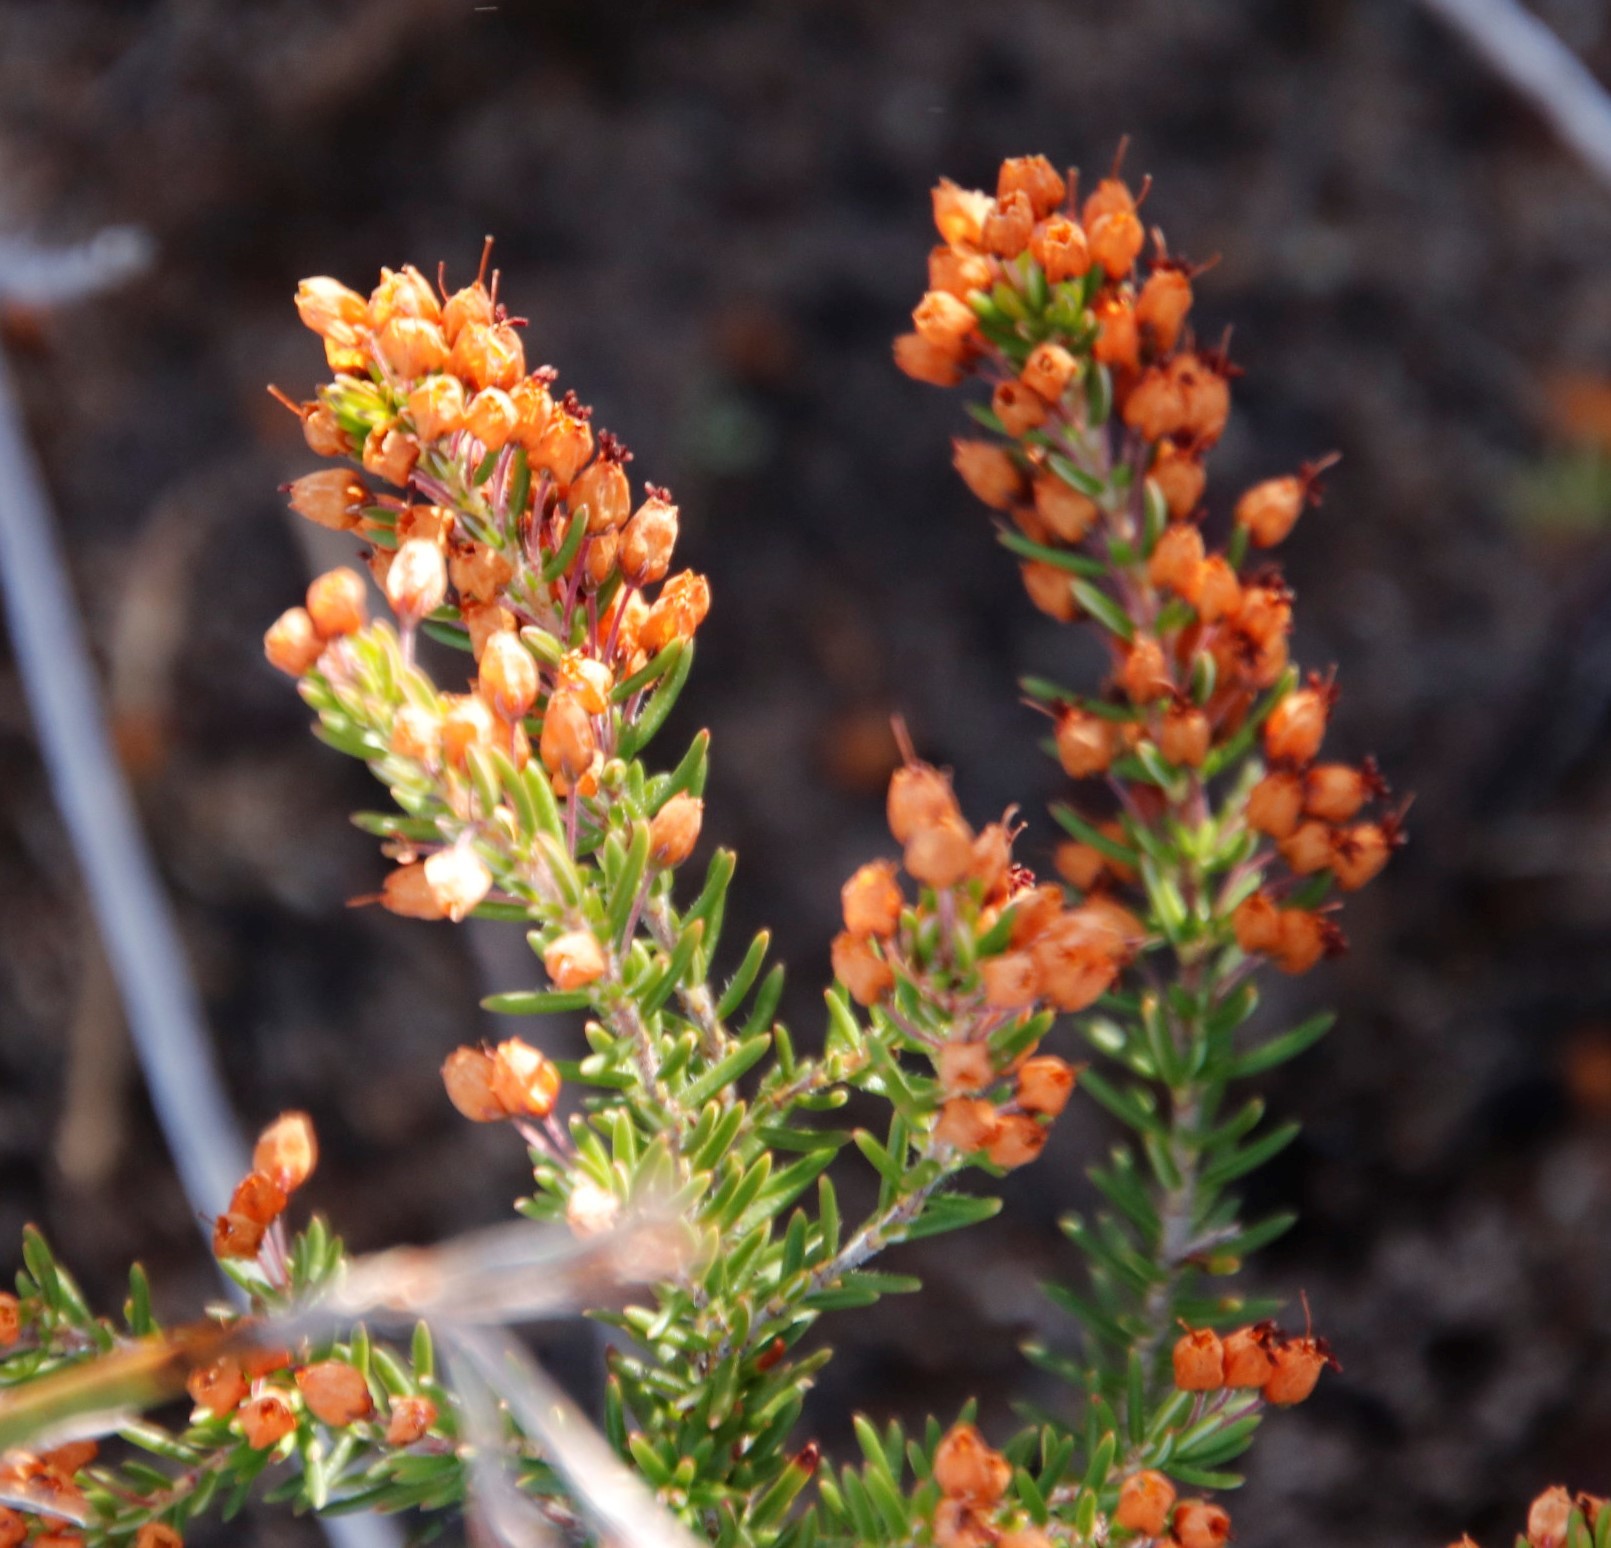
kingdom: Plantae
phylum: Tracheophyta
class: Magnoliopsida
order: Ericales
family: Ericaceae
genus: Erica
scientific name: Erica nudiflora
